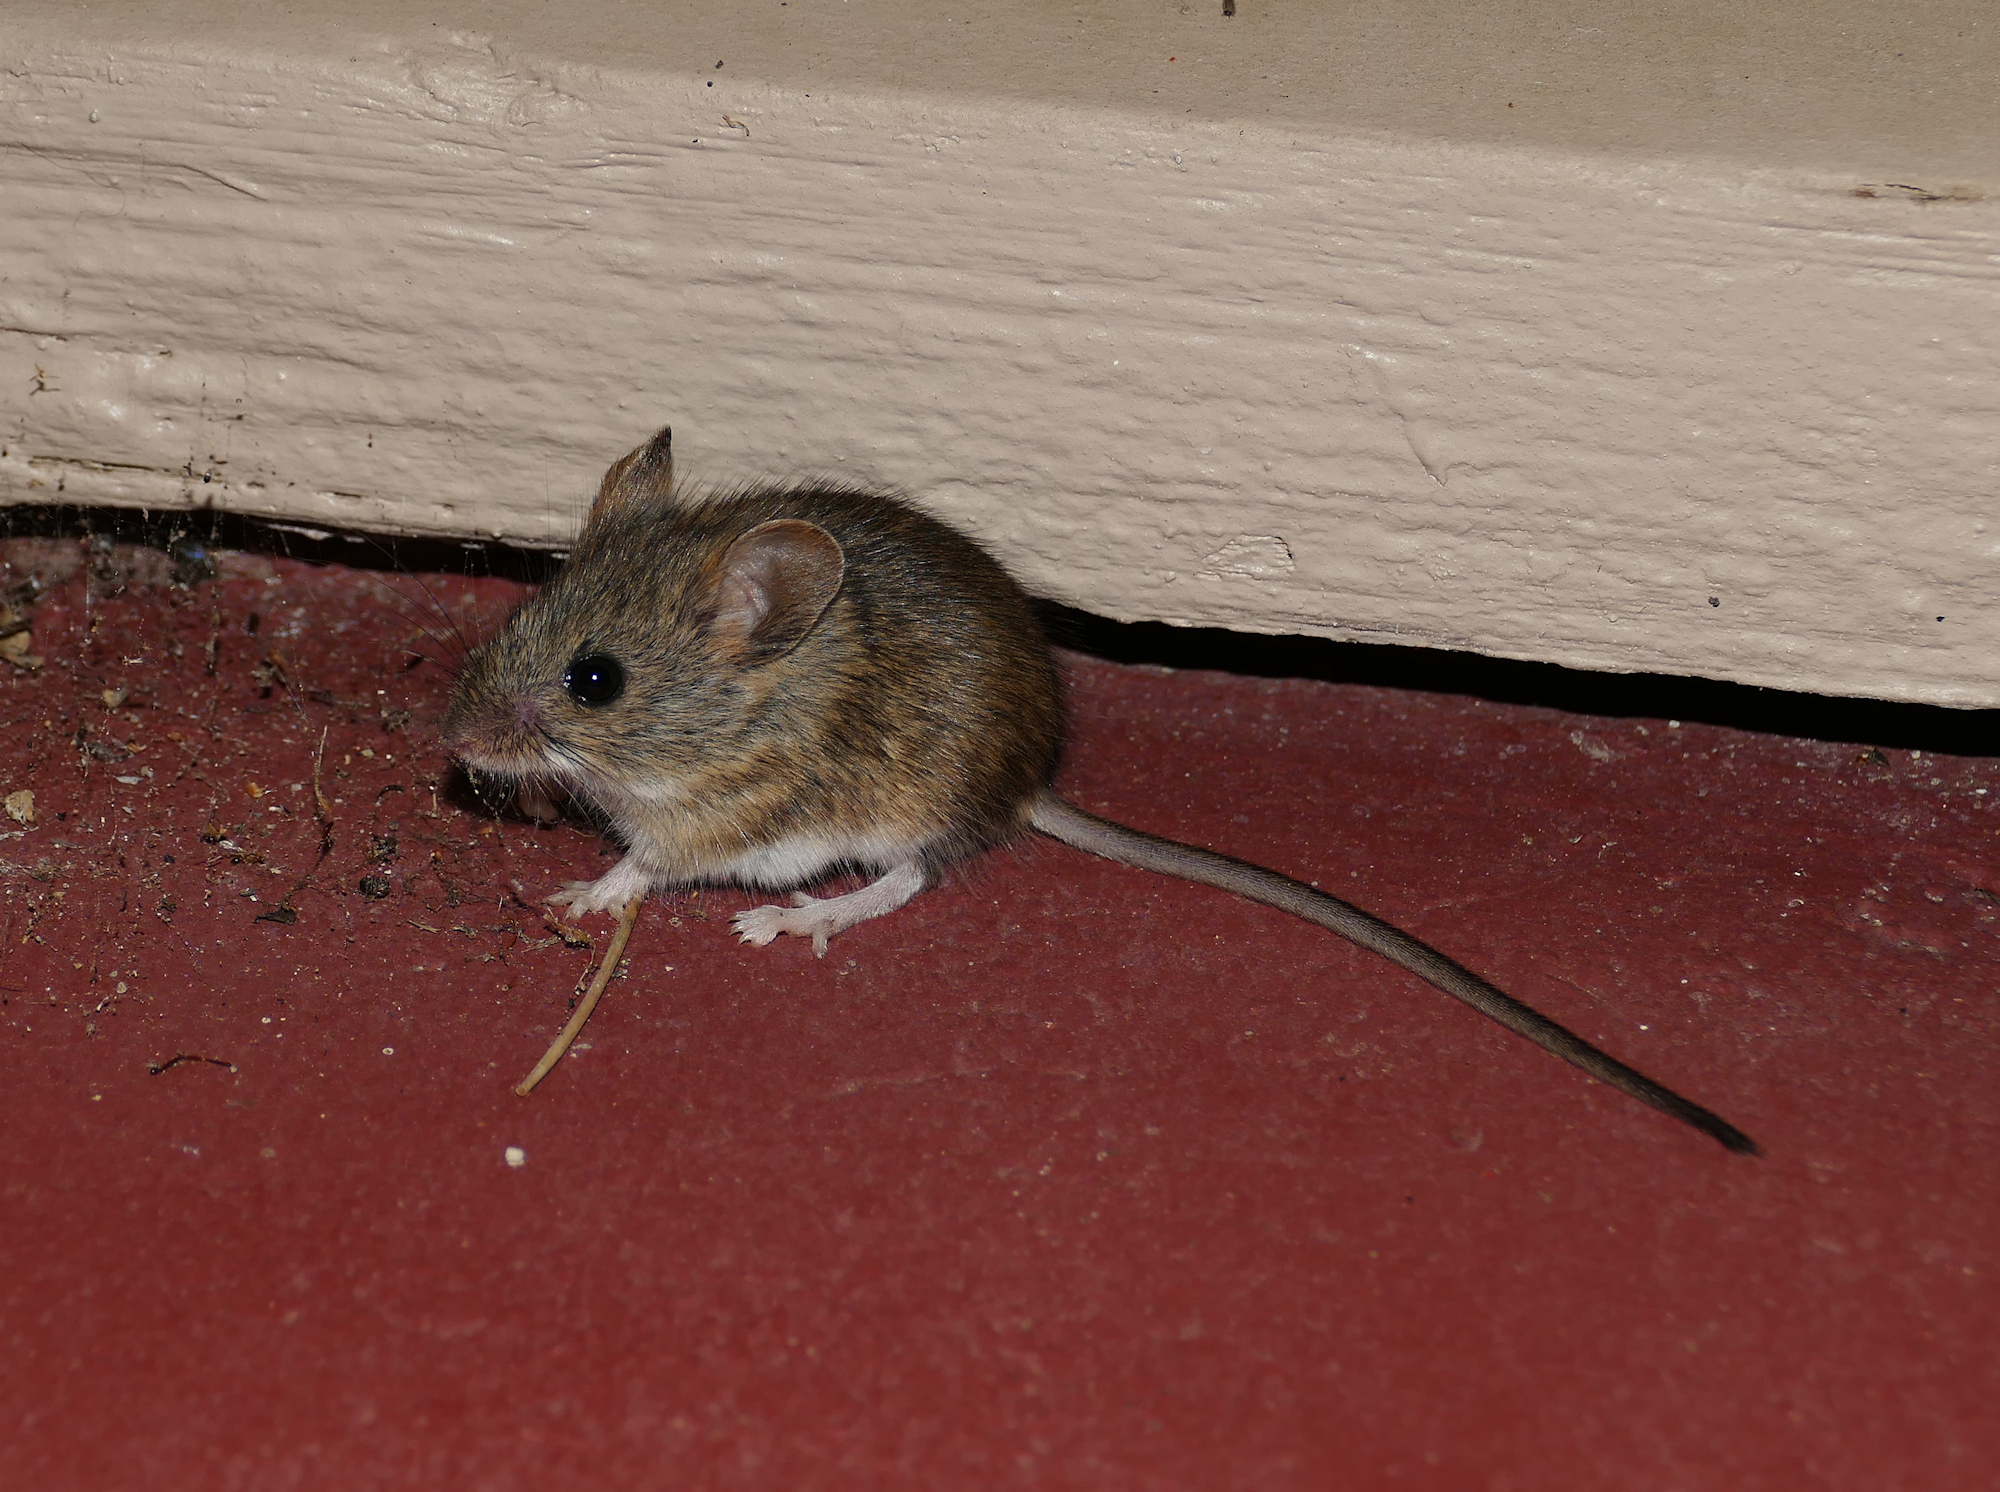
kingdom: Animalia
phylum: Chordata
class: Mammalia
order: Rodentia
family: Cricetidae
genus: Reithrodontomys
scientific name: Reithrodontomys megalotis
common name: Western harvest mouse
